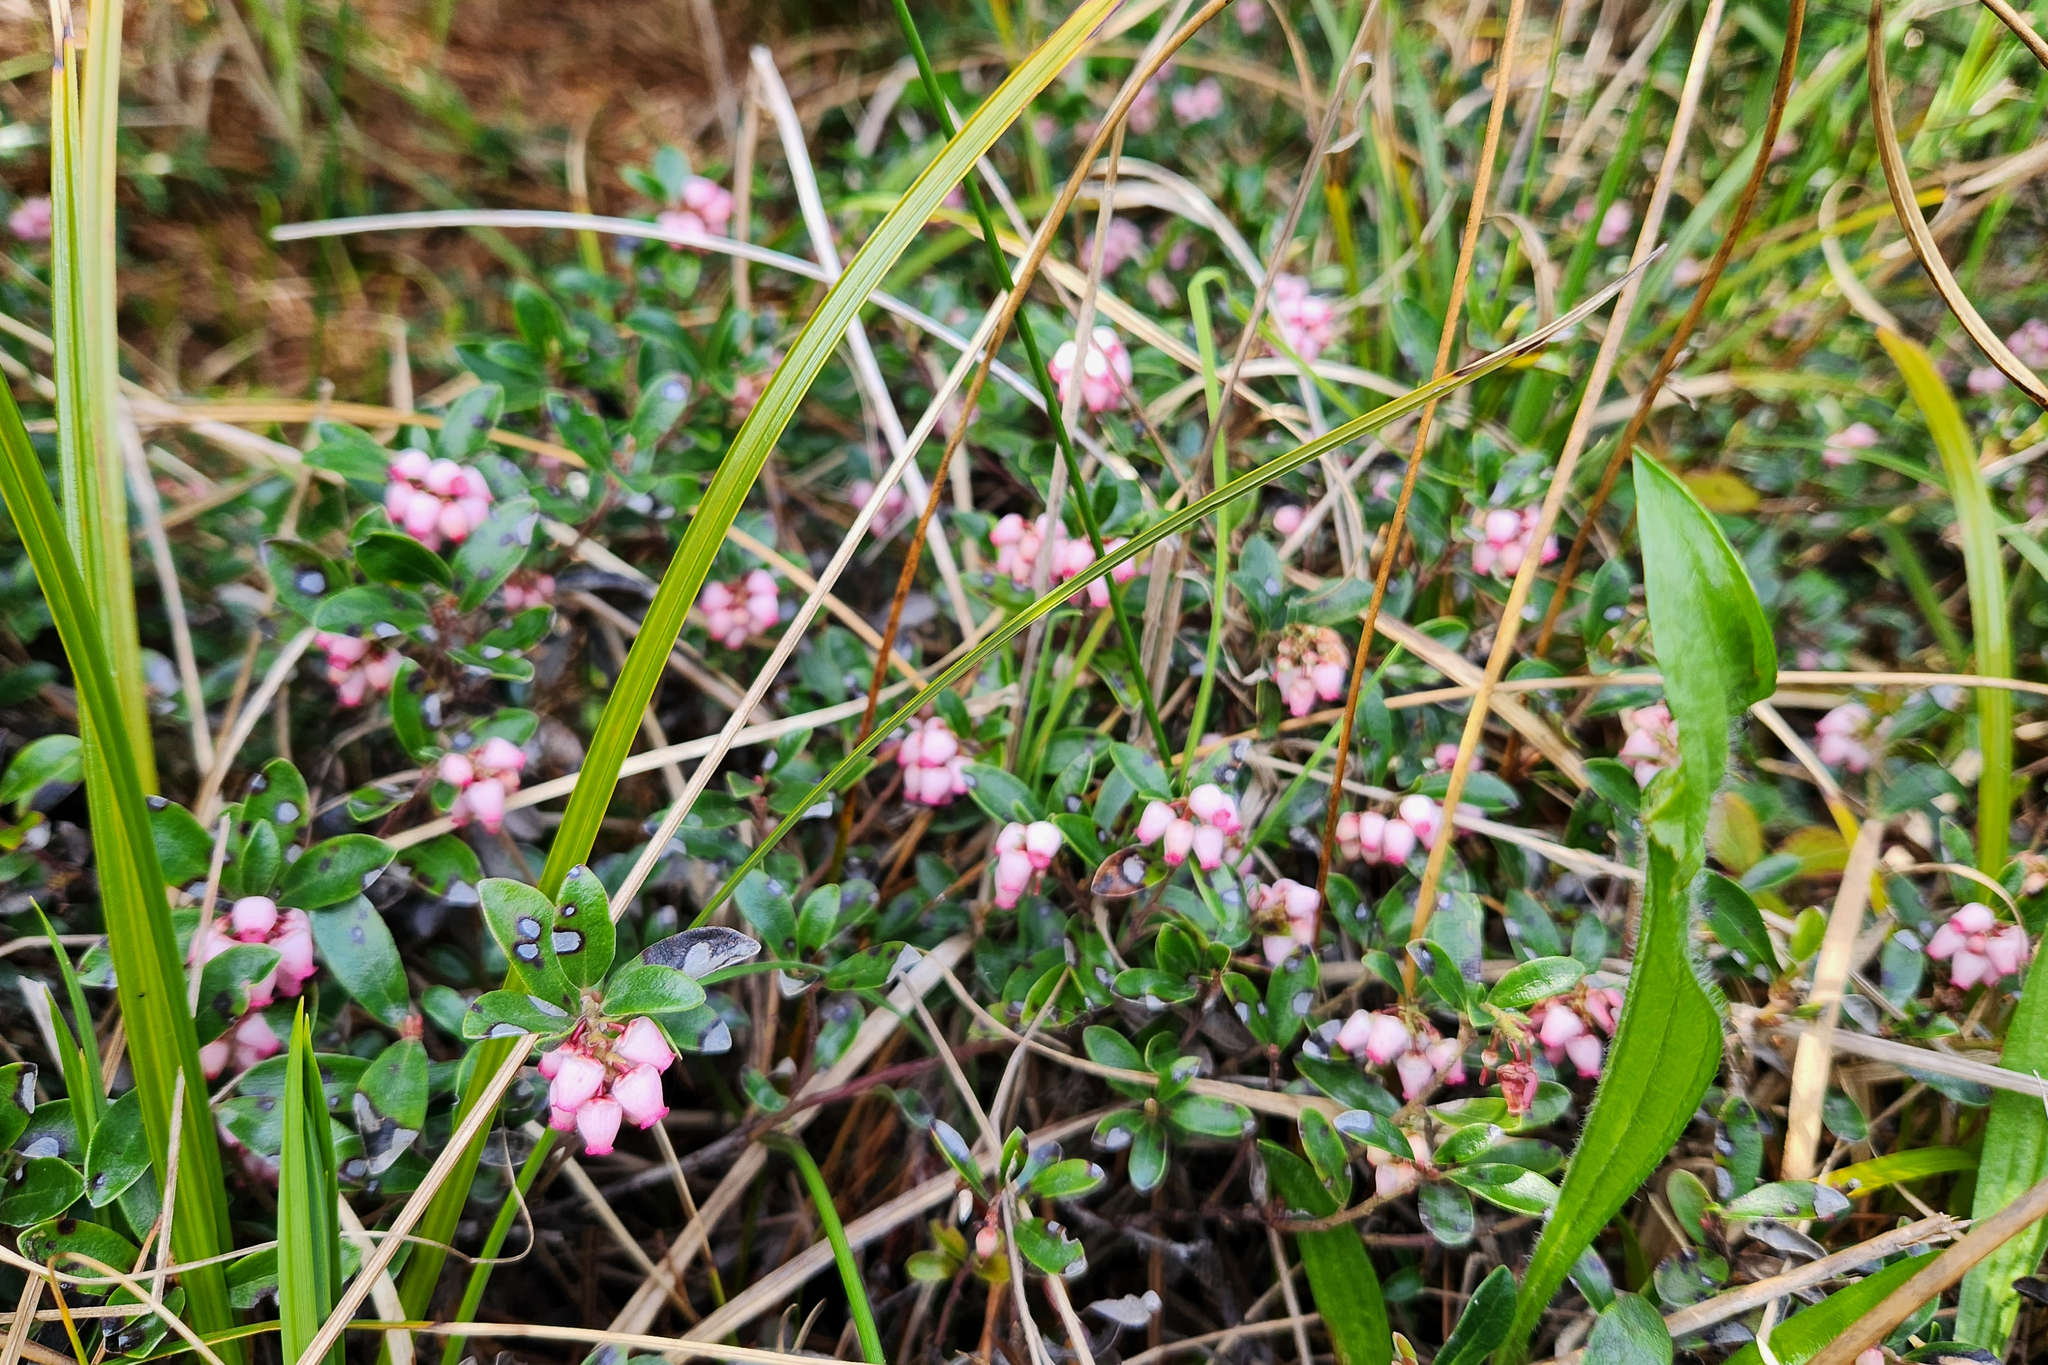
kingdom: Plantae
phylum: Tracheophyta
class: Magnoliopsida
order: Ericales
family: Ericaceae
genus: Arctostaphylos
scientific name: Arctostaphylos uva-ursi
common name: Bearberry
